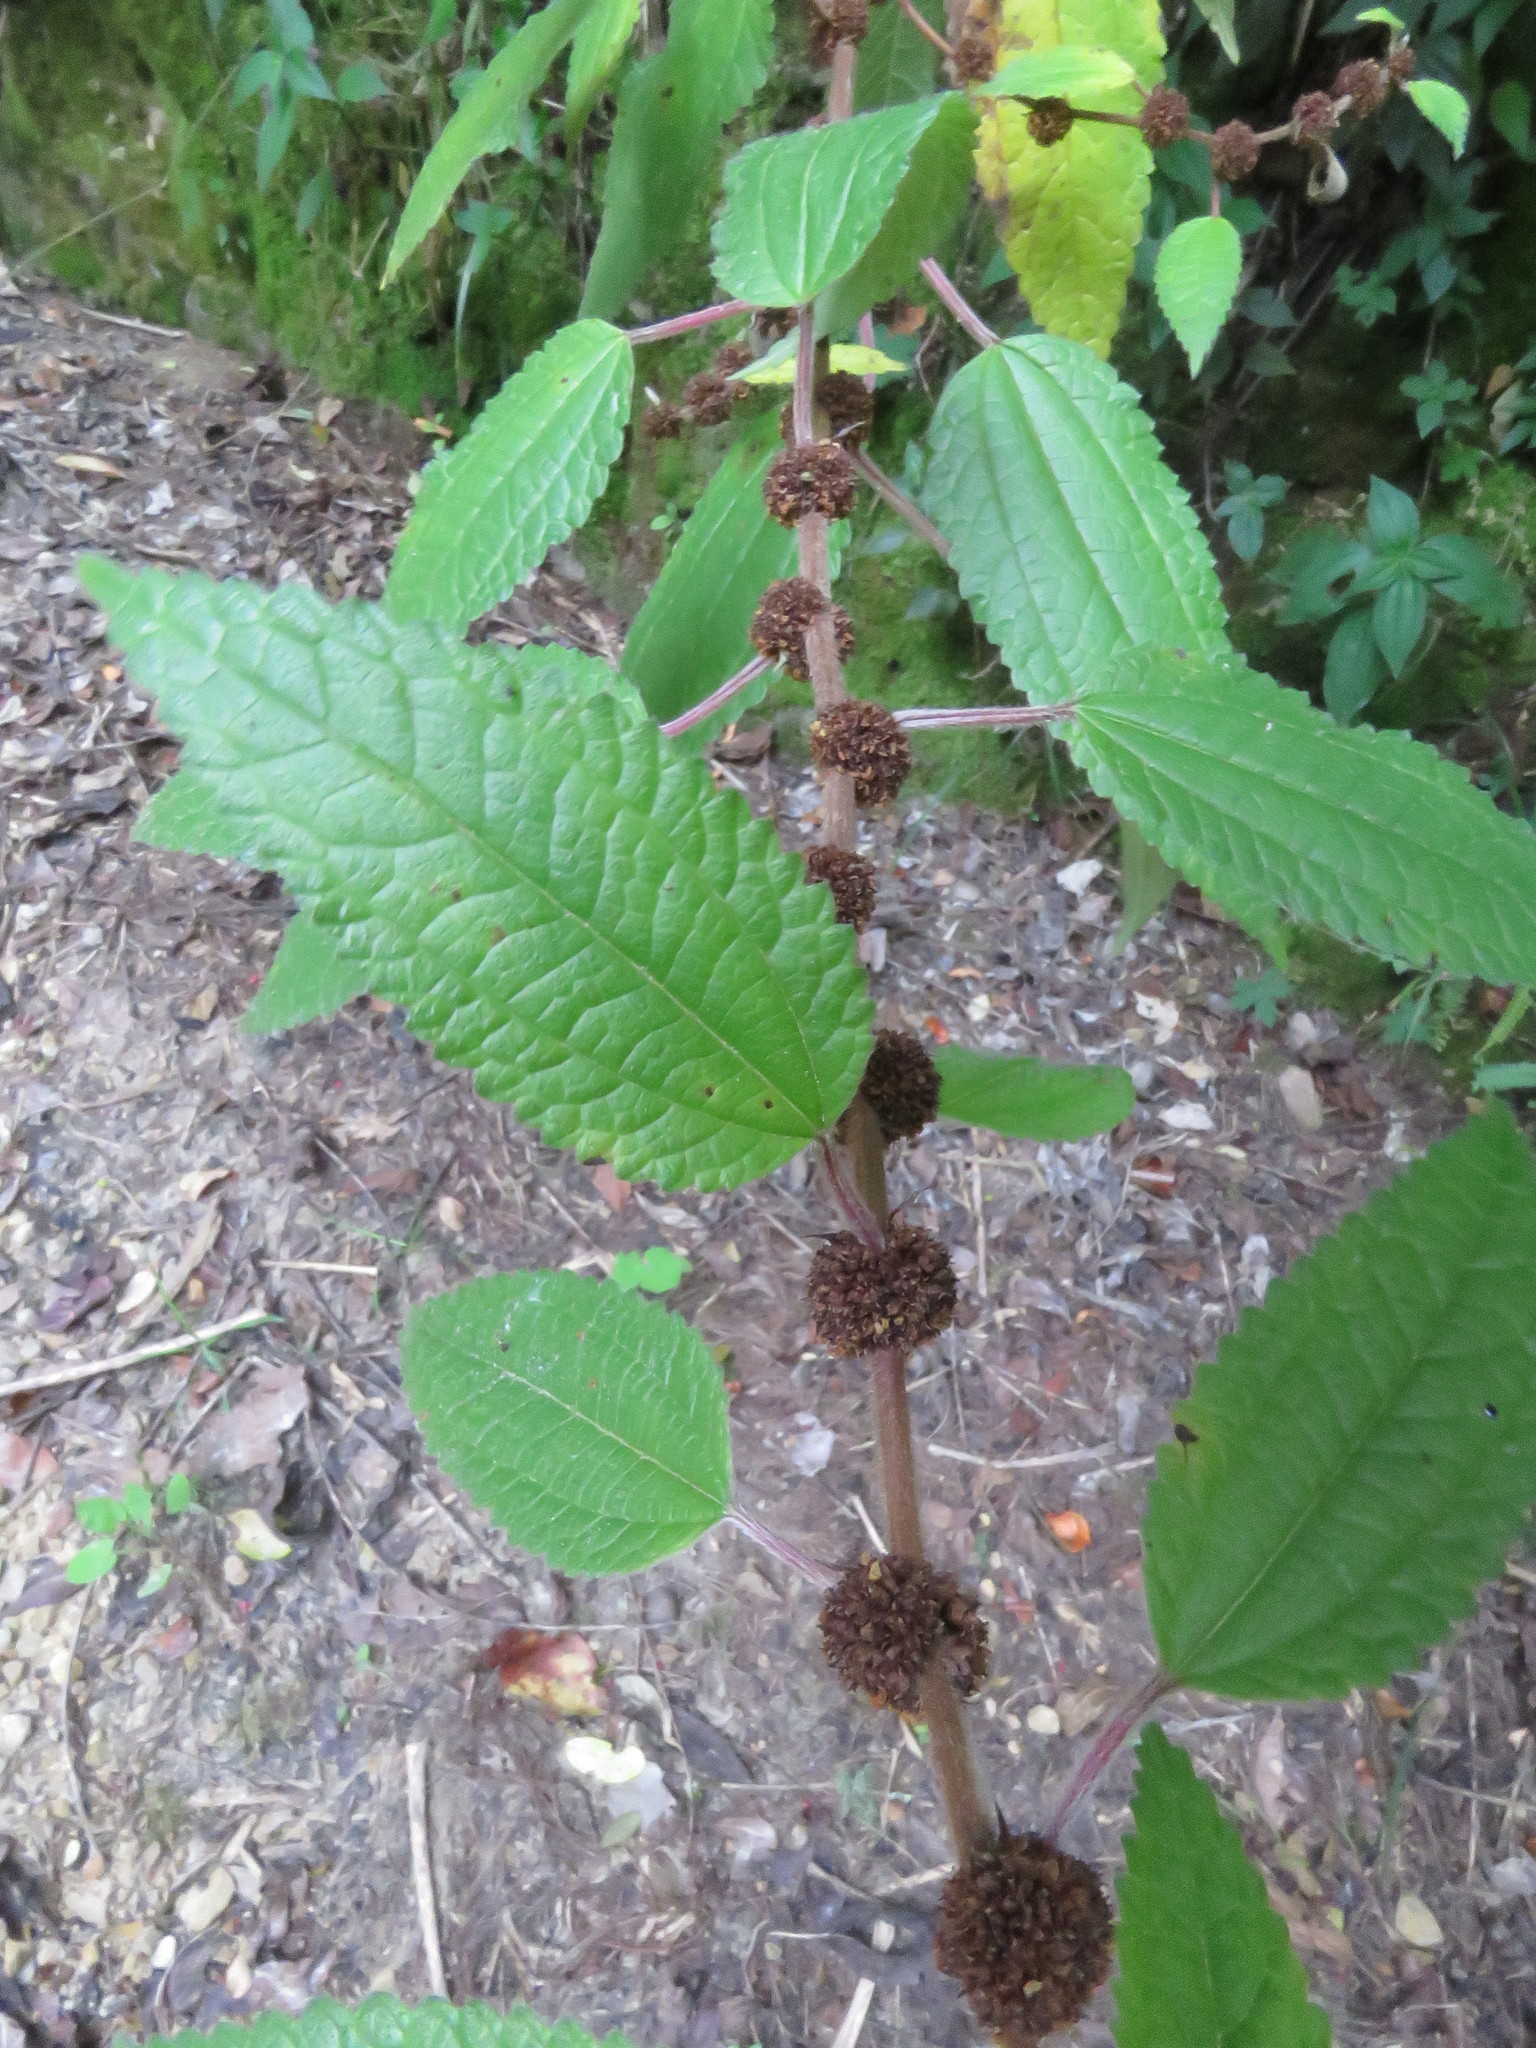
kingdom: Plantae
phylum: Tracheophyta
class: Magnoliopsida
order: Rosales
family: Urticaceae
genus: Phenax
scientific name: Phenax rugosus
